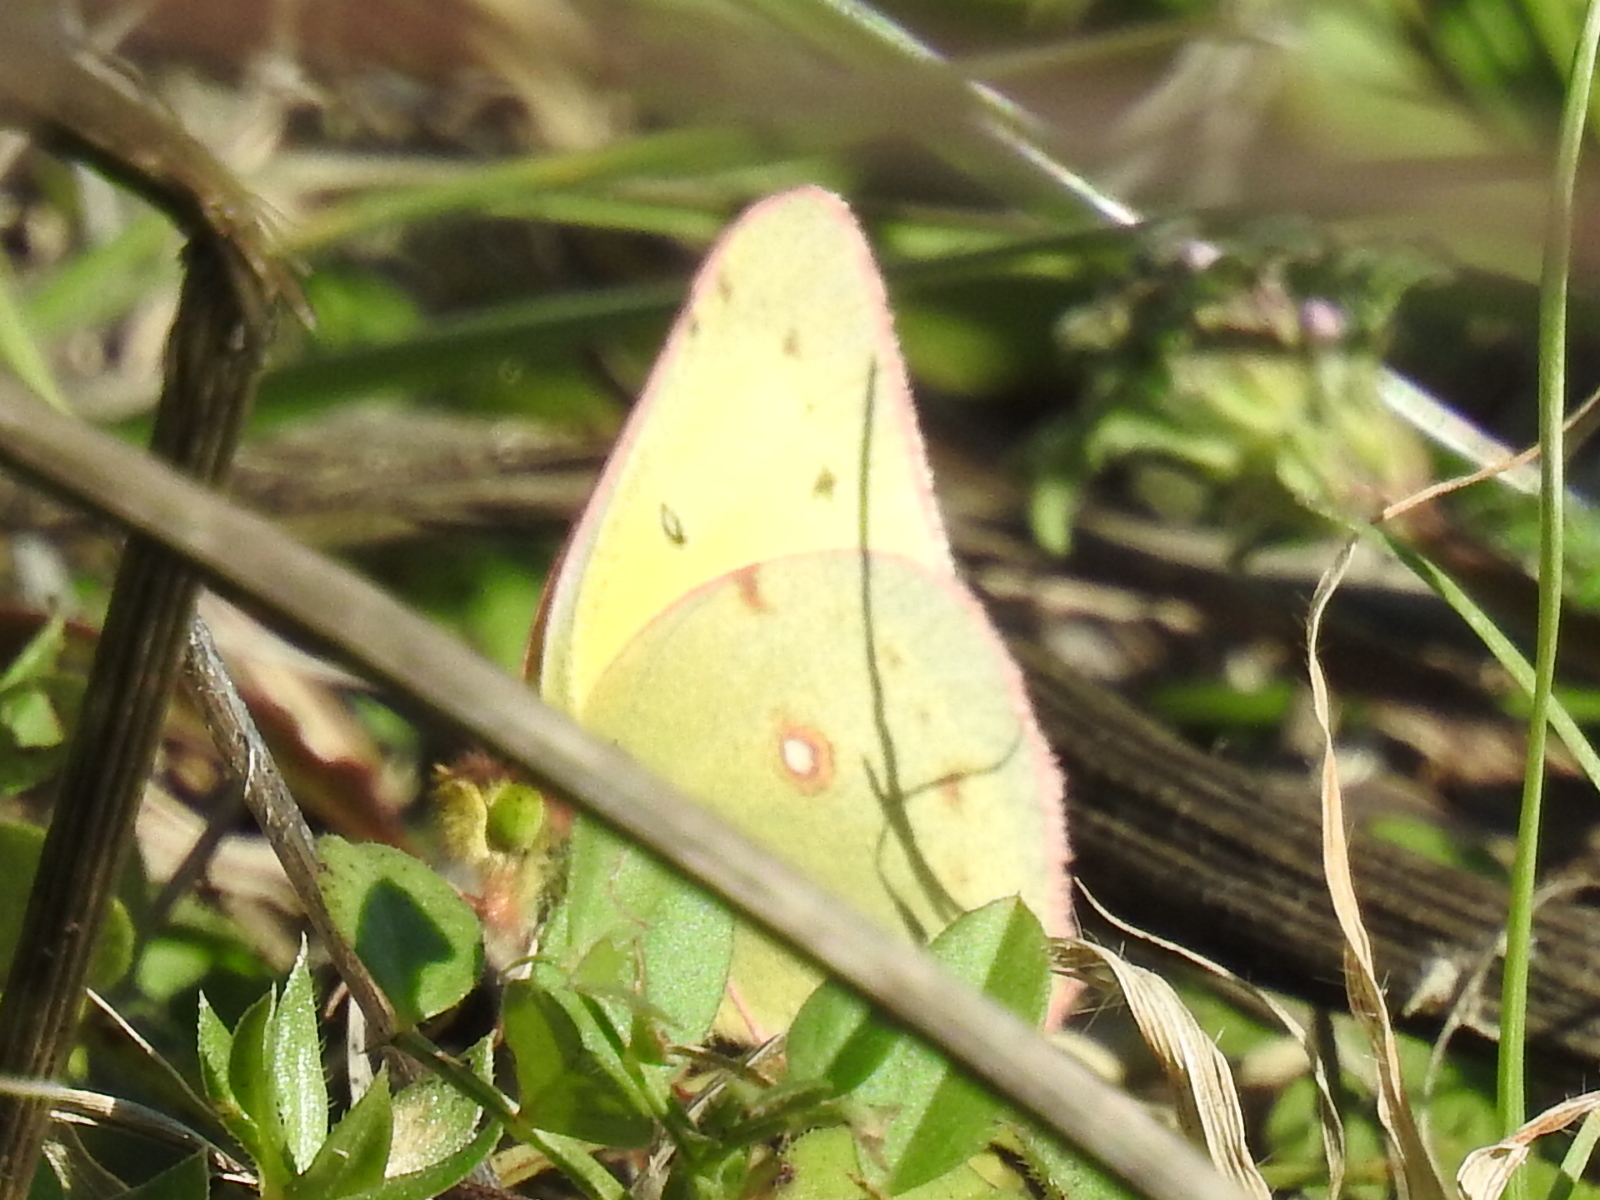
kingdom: Animalia
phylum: Arthropoda
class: Insecta
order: Lepidoptera
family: Pieridae
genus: Colias
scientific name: Colias eurytheme
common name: Alfalfa butterfly
